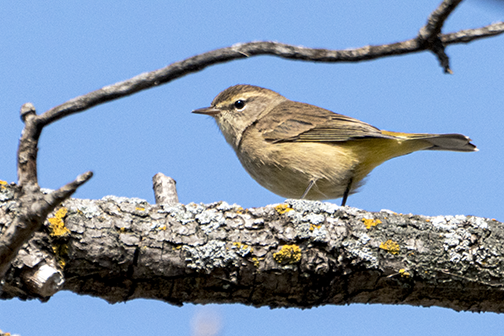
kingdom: Animalia
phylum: Chordata
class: Aves
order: Passeriformes
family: Parulidae
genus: Setophaga
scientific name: Setophaga palmarum
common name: Palm warbler
